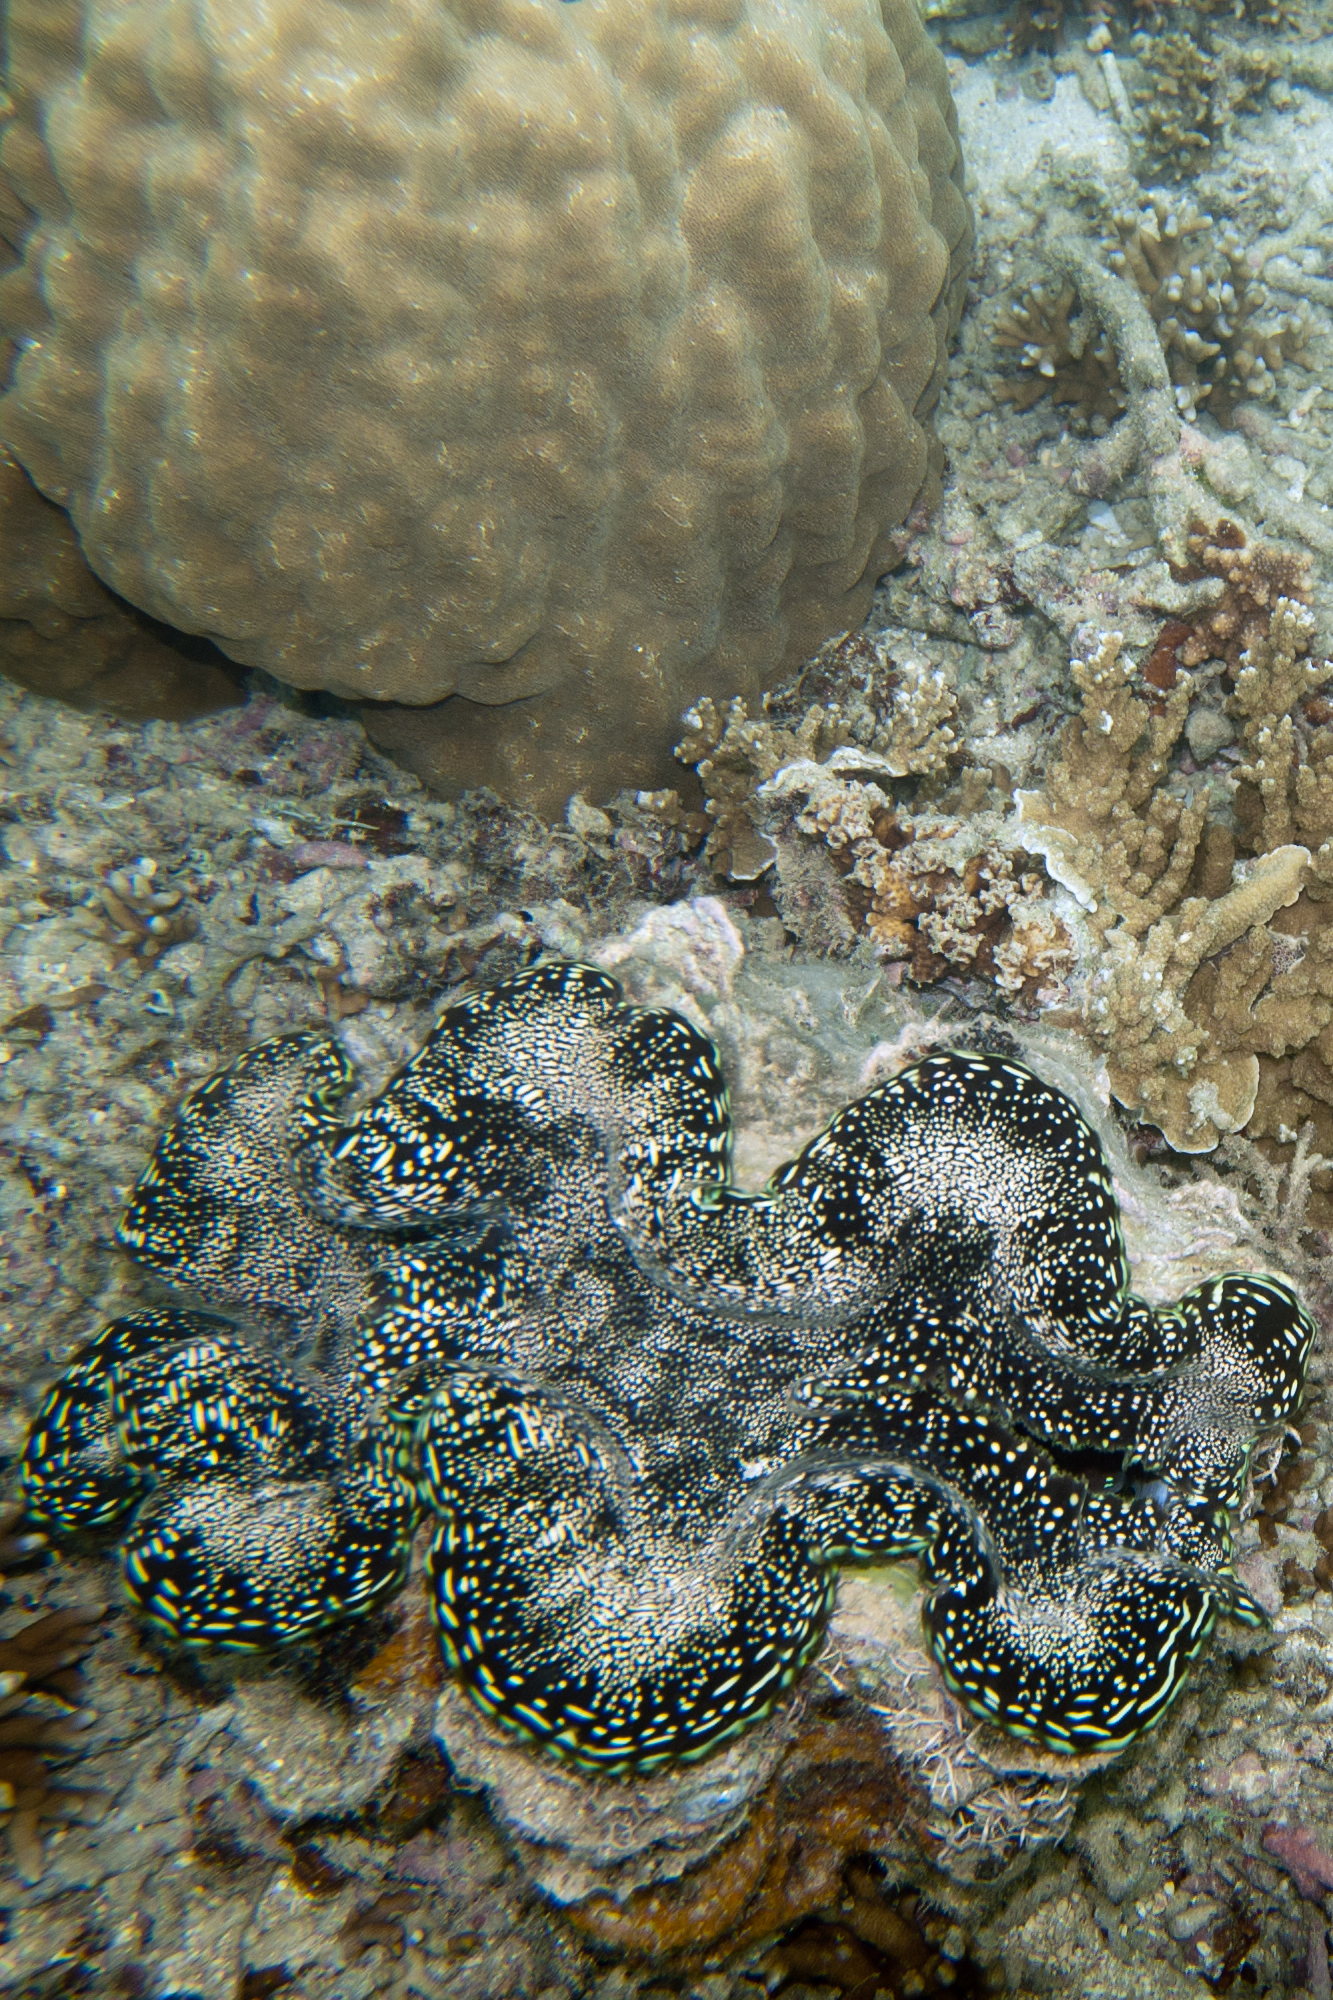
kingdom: Animalia
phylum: Mollusca
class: Bivalvia
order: Cardiida
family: Cardiidae
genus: Tridacna
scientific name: Tridacna squamosa
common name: Fluted clam
